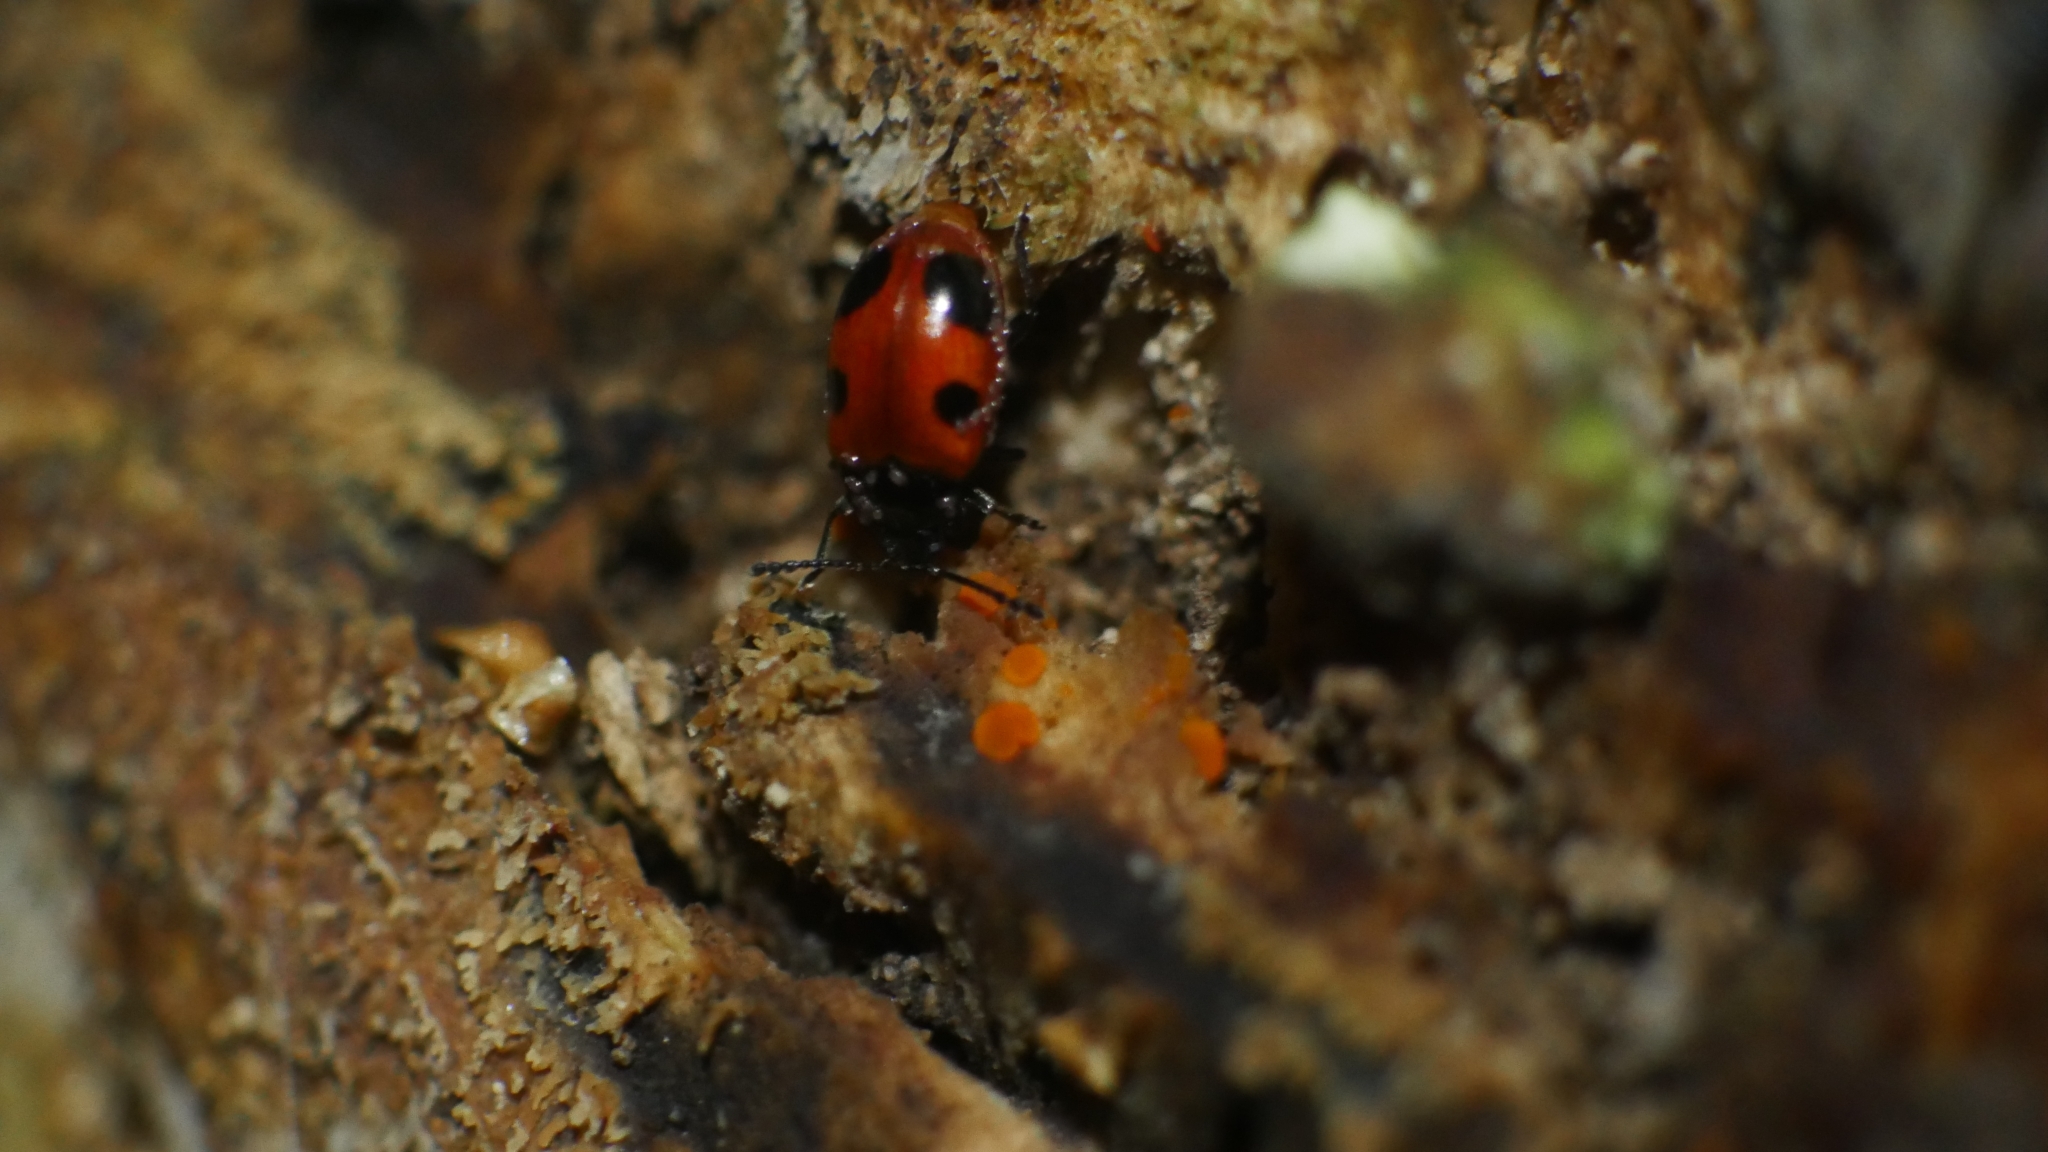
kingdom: Animalia
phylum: Arthropoda
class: Insecta
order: Coleoptera
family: Endomychidae
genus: Endomychus
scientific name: Endomychus biguttatus
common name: Handsome fungus beetle
